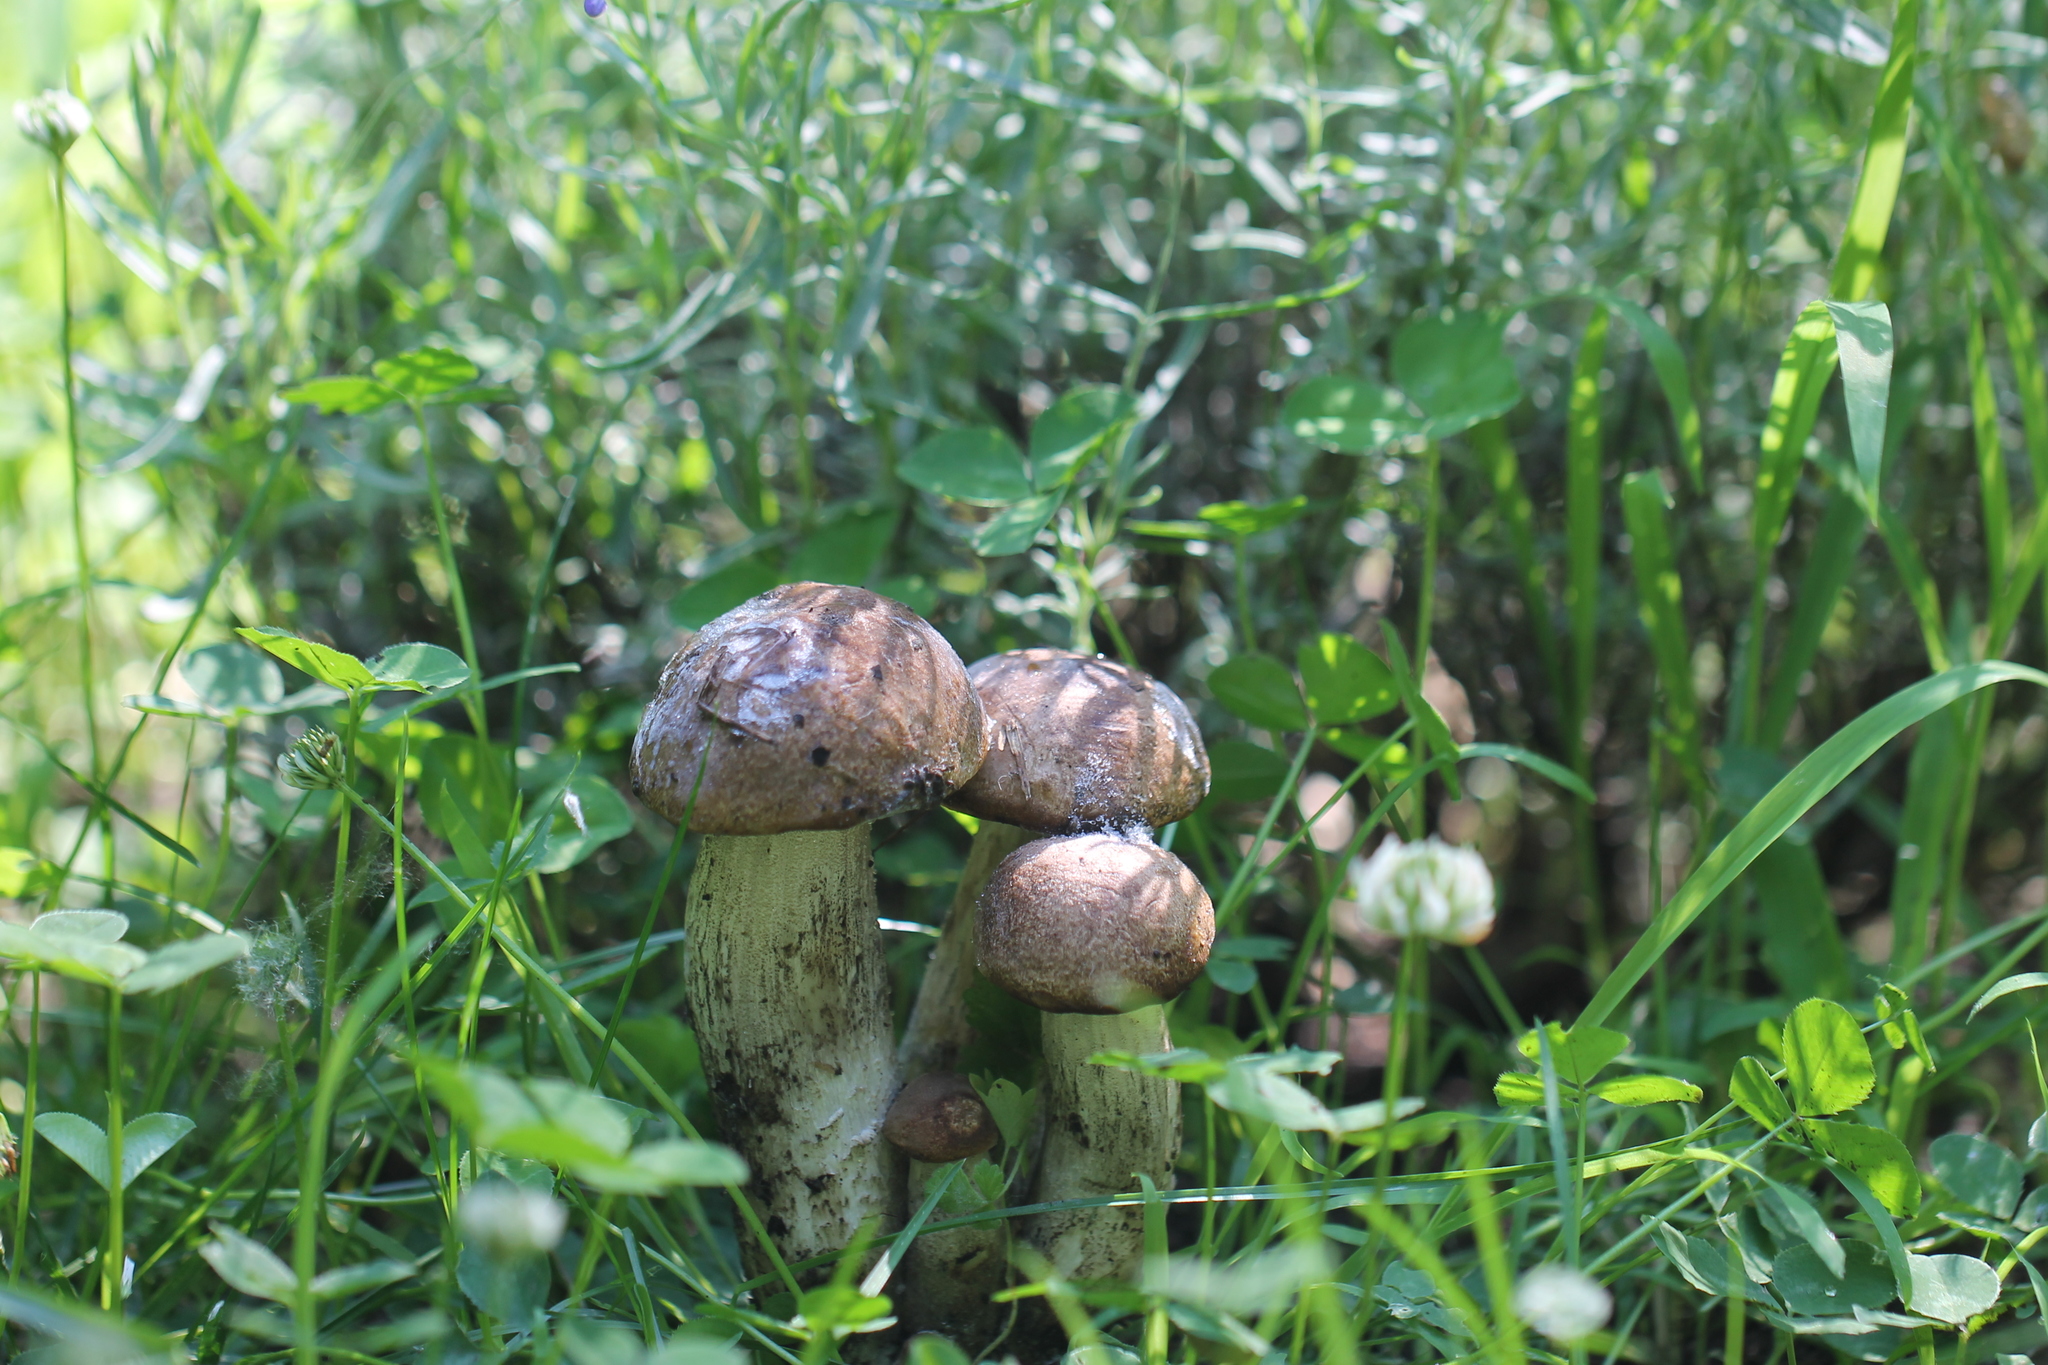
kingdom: Fungi
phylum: Basidiomycota
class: Agaricomycetes
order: Boletales
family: Boletaceae
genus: Leccinum
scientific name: Leccinum scabrum
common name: Blushing bolete
